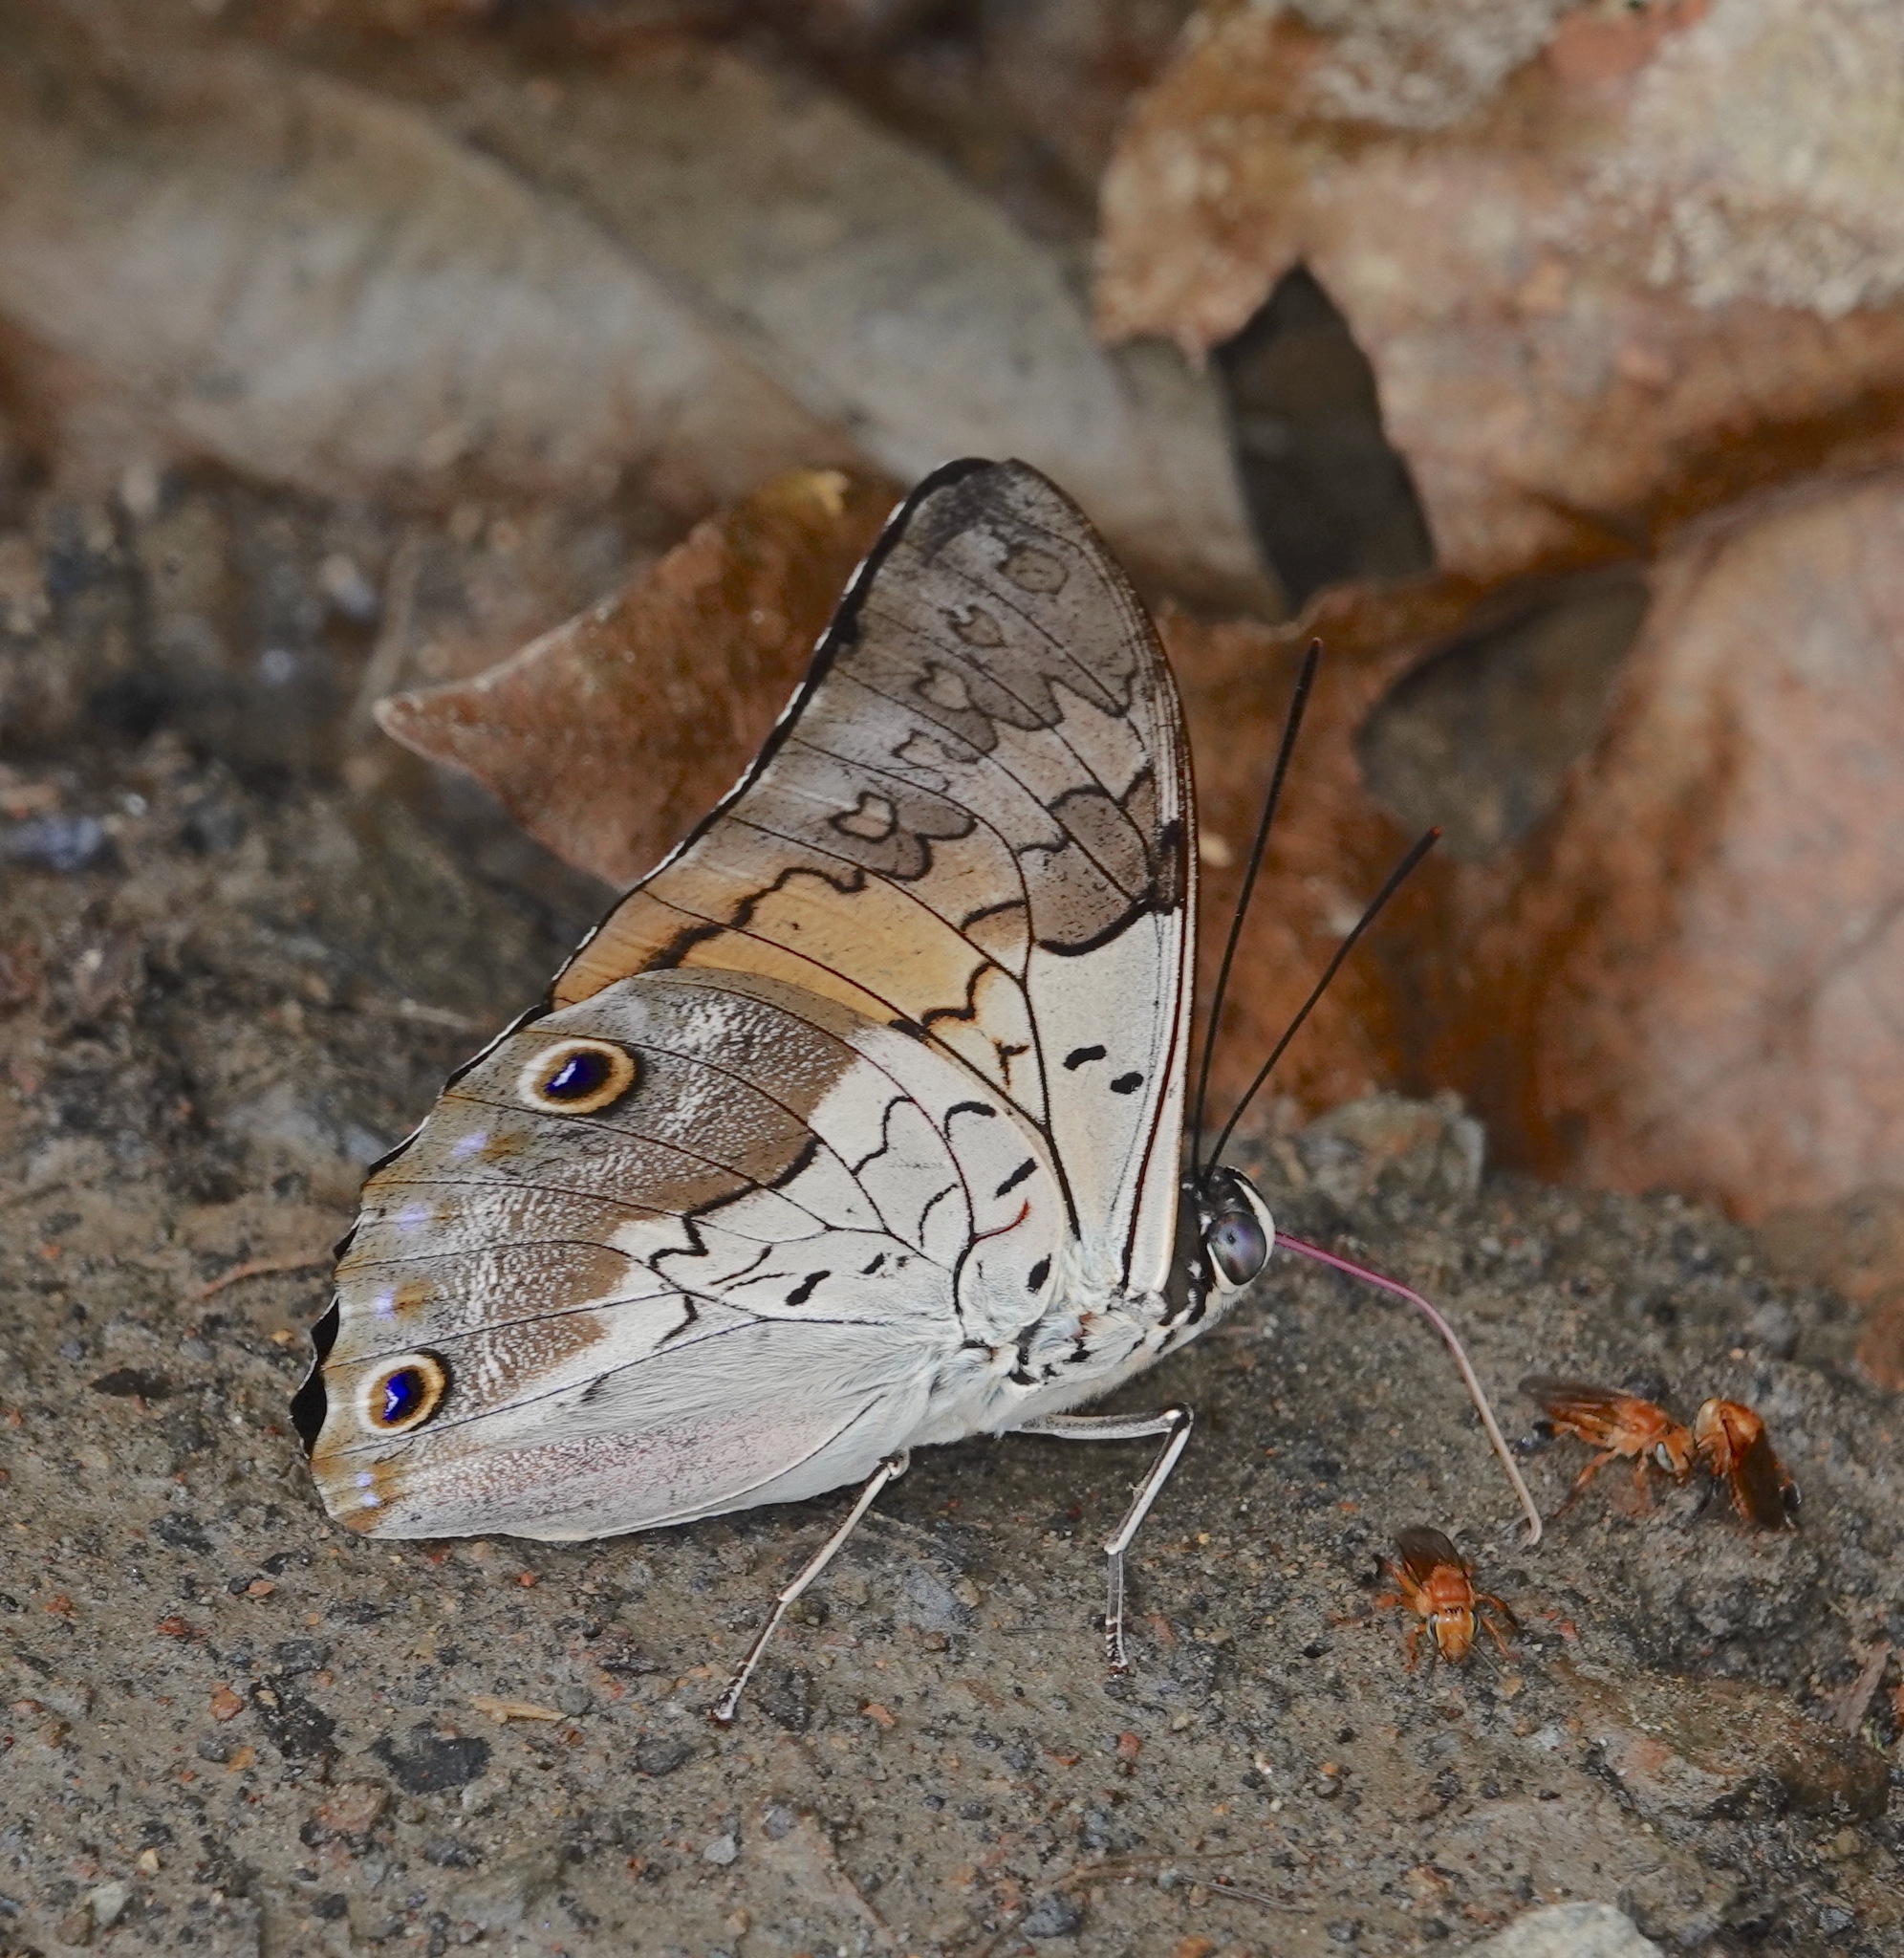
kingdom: Animalia
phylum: Arthropoda
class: Insecta
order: Lepidoptera
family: Nymphalidae
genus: Prepona
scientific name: Prepona laertes
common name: Butterfly
